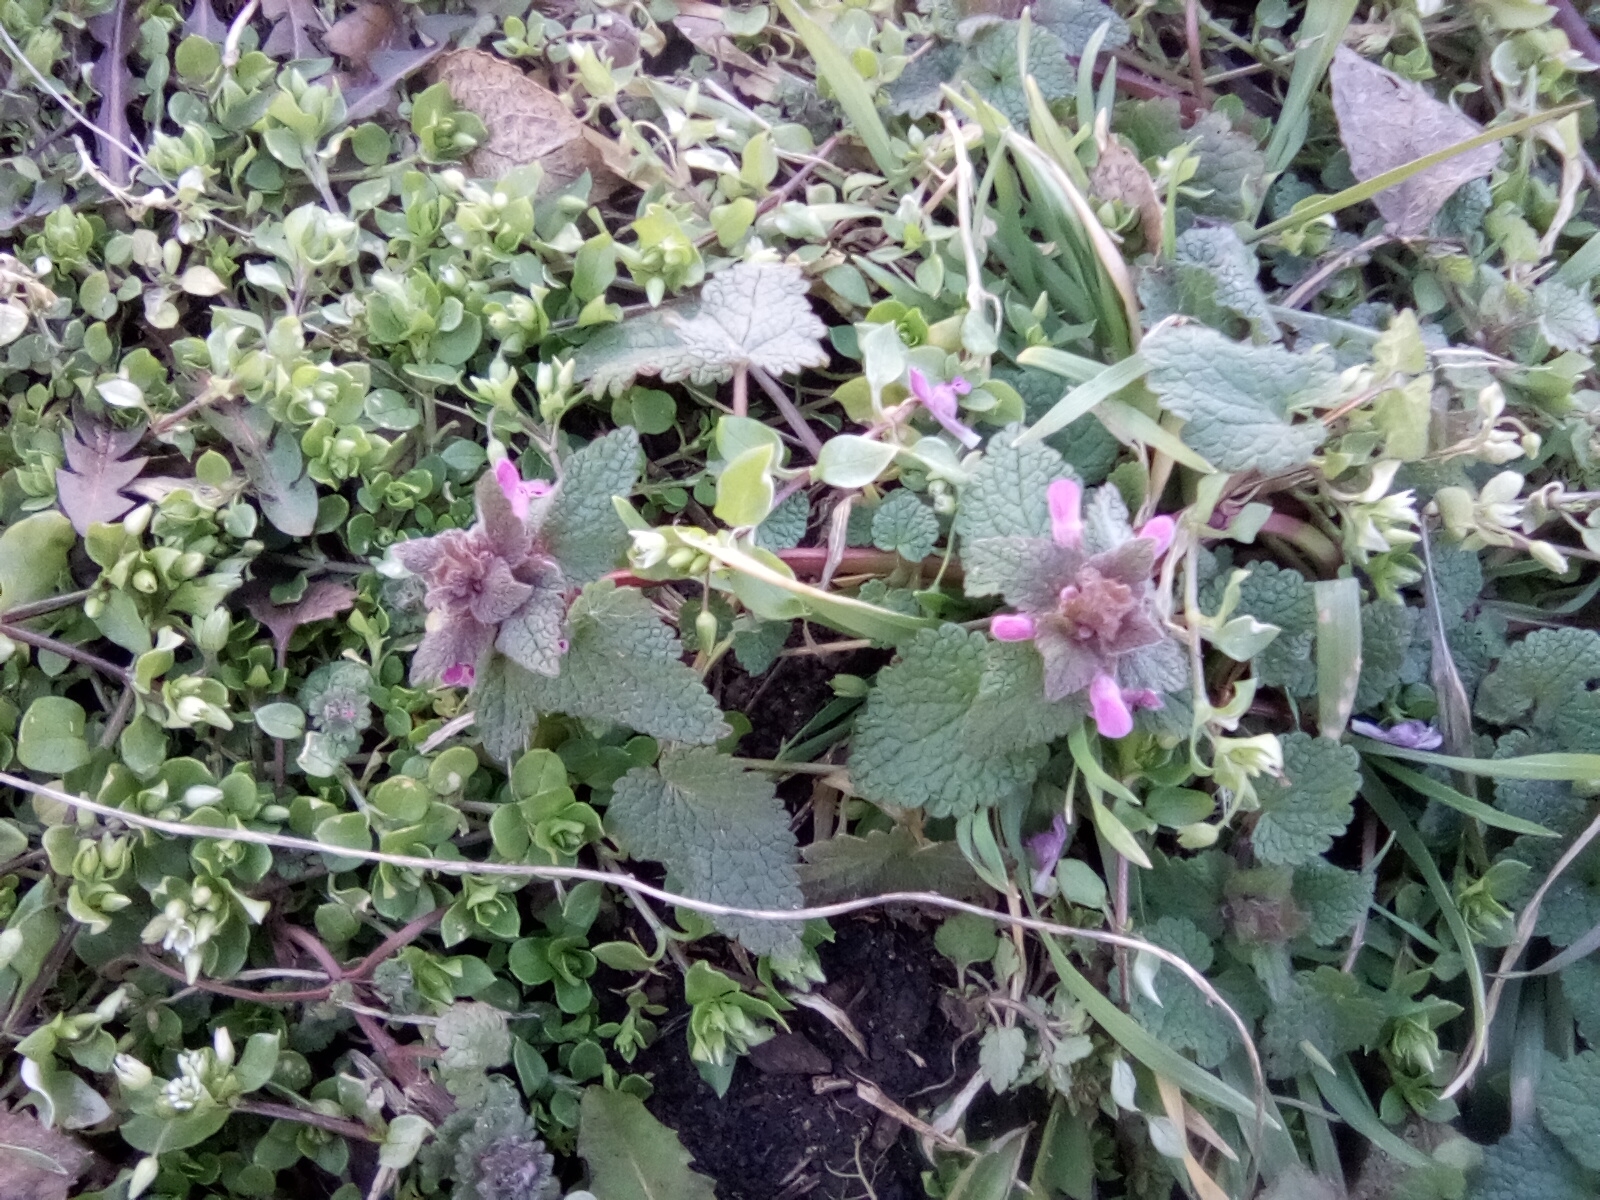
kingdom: Plantae
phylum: Tracheophyta
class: Magnoliopsida
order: Lamiales
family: Lamiaceae
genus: Lamium
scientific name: Lamium purpureum
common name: Red dead-nettle
